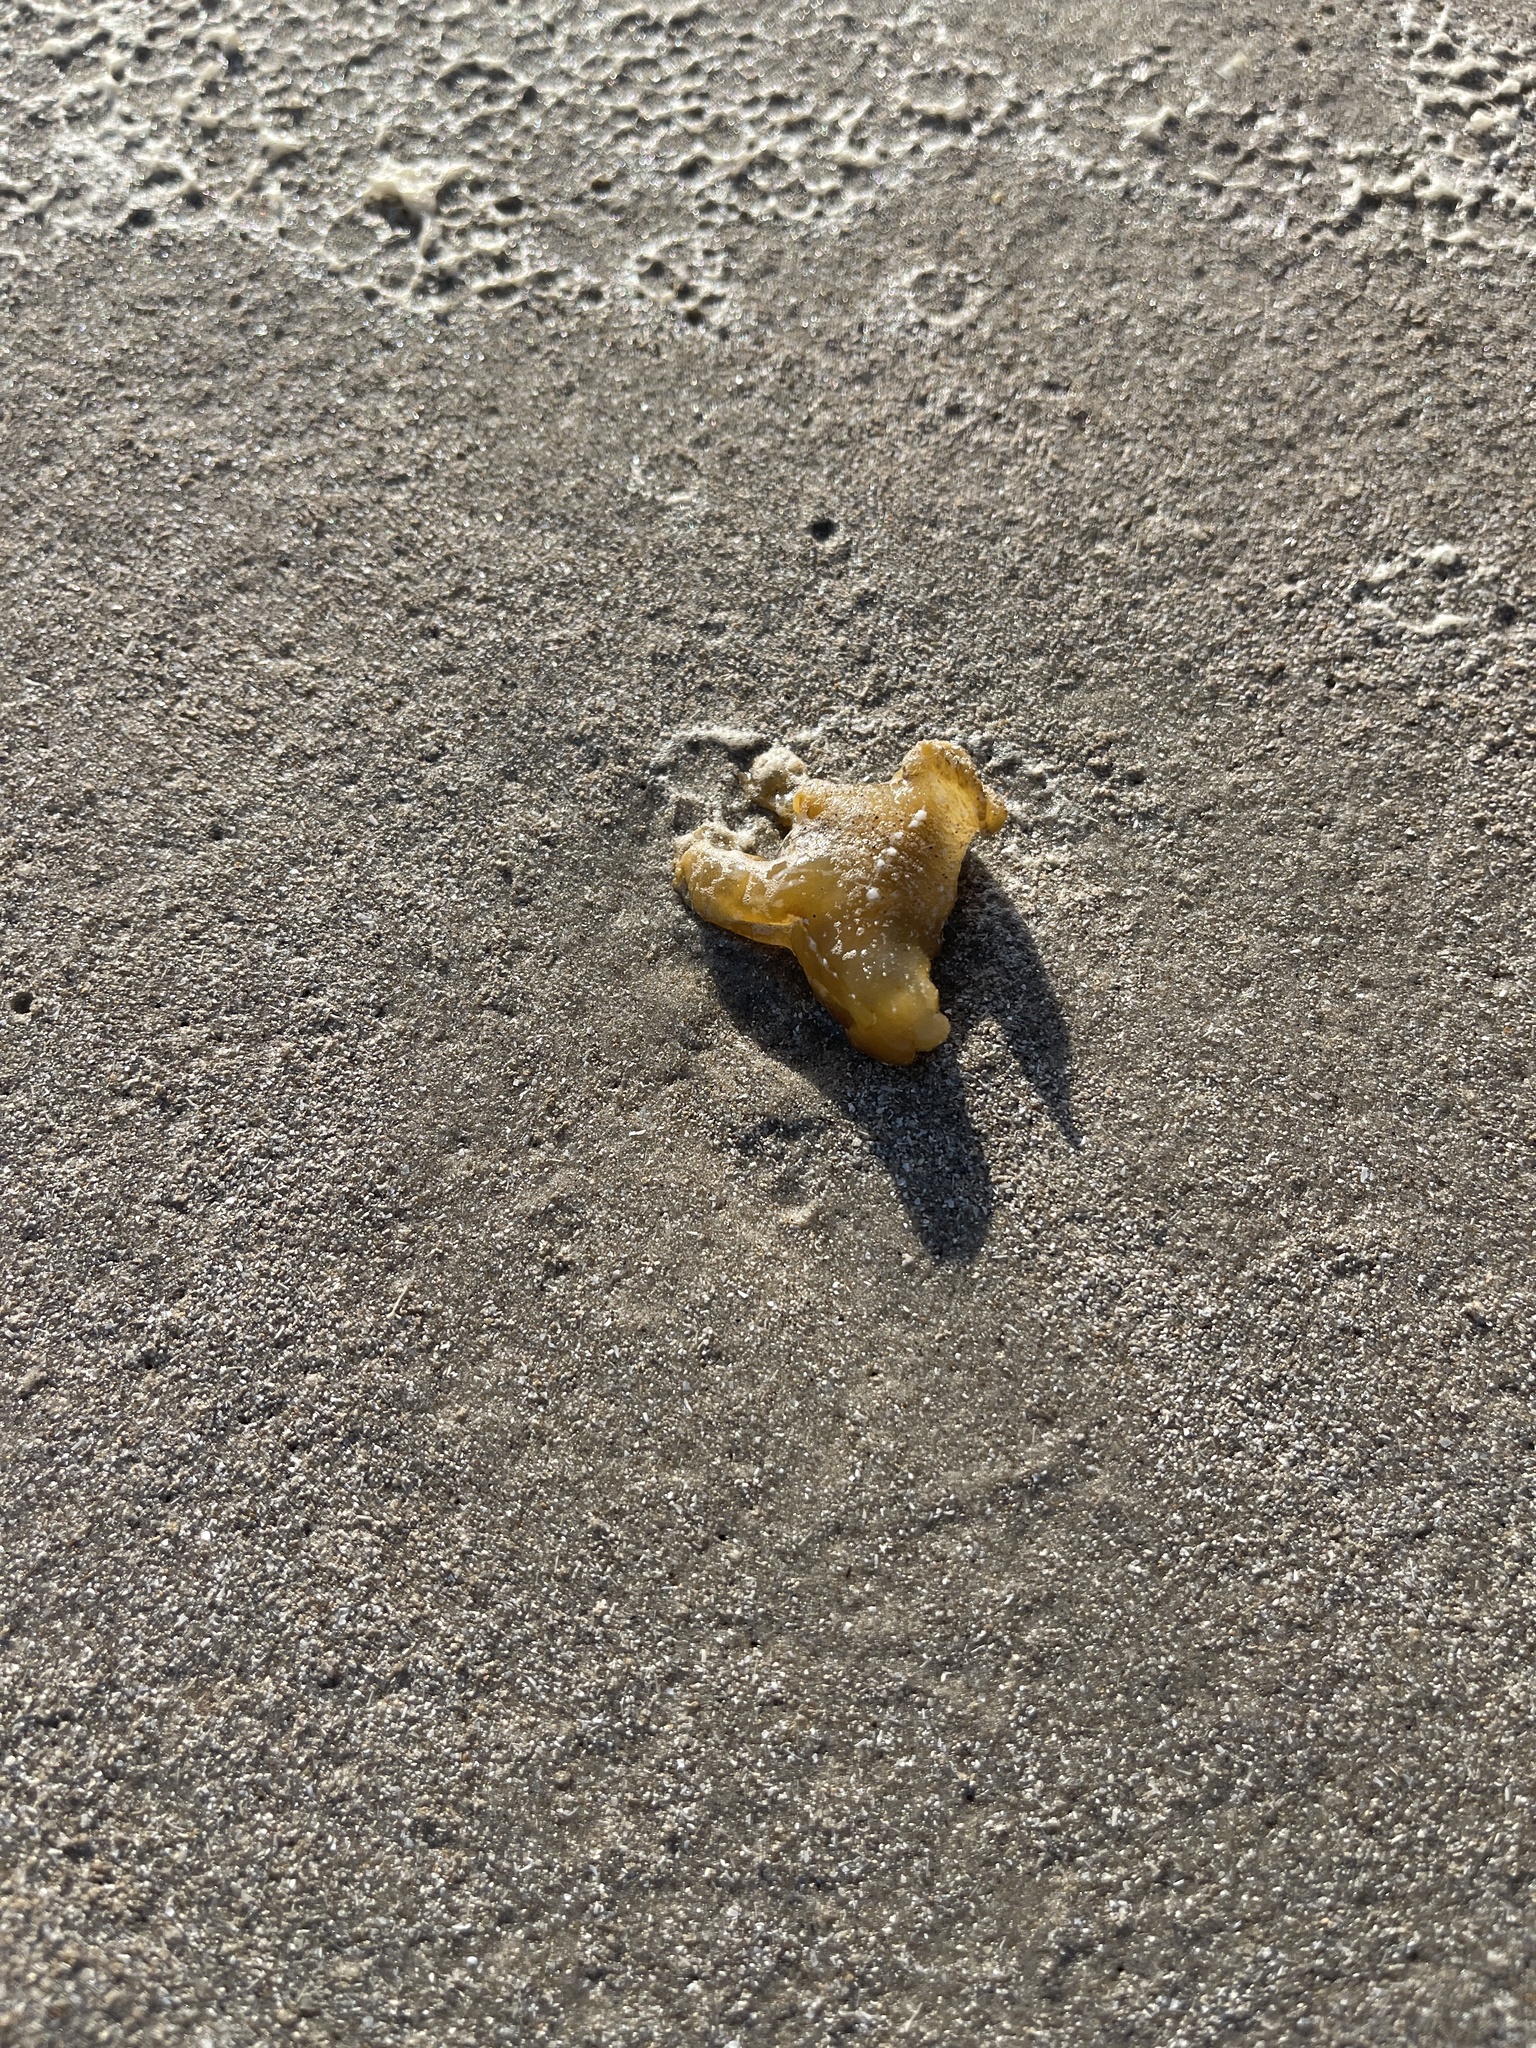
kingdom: Animalia
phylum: Mollusca
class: Gastropoda
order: Nudibranchia
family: Scyllaeidae
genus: Scyllaea
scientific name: Scyllaea pelagica
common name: Sargassum nudibranch
